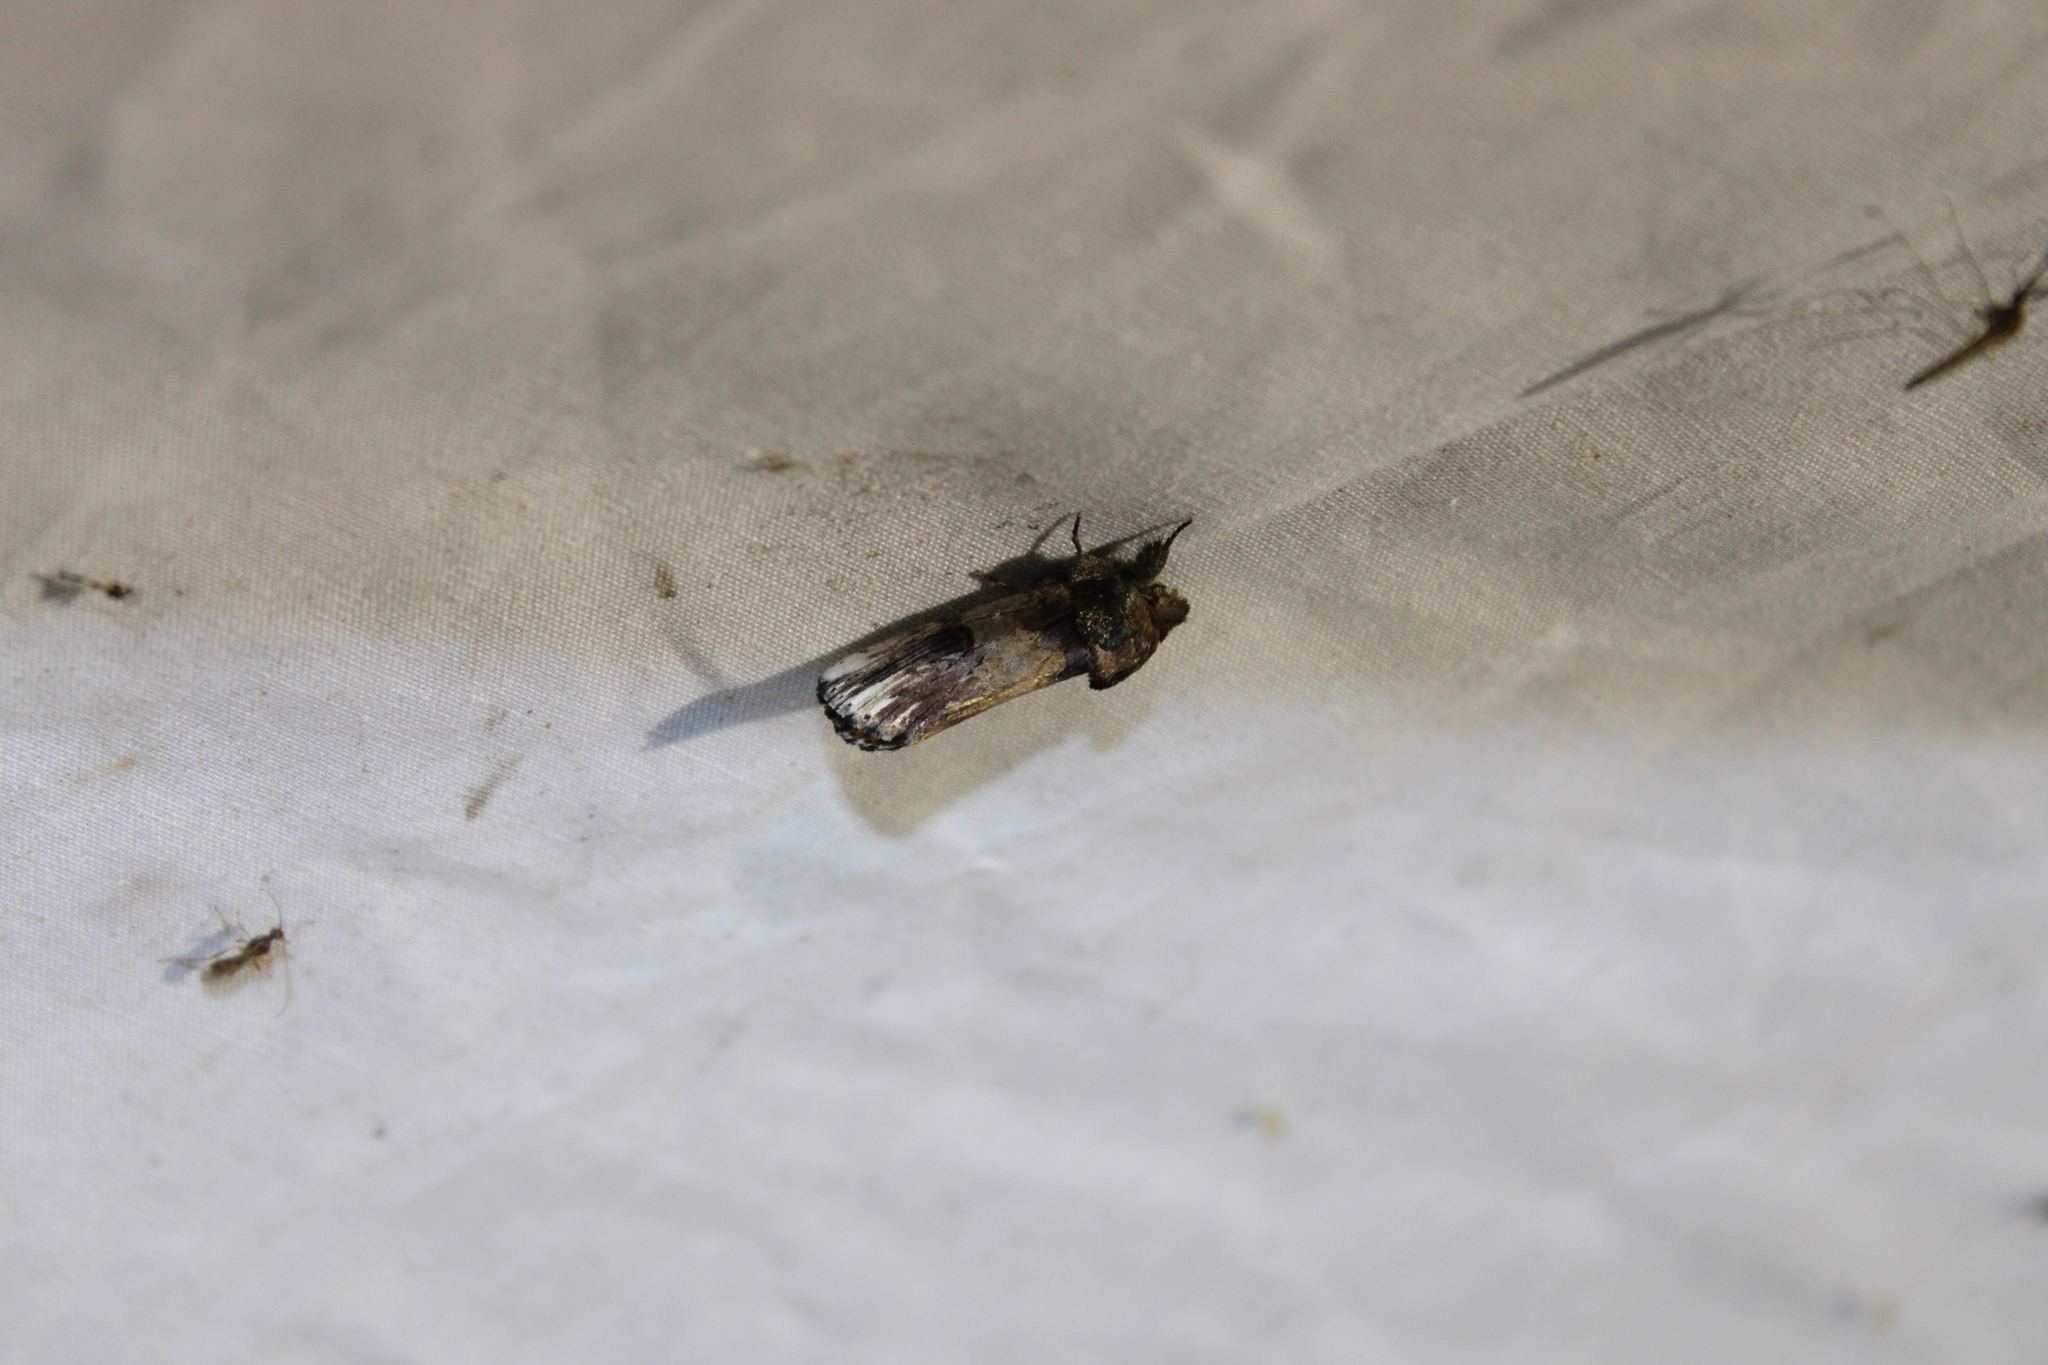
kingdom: Animalia
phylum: Arthropoda
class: Insecta
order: Lepidoptera
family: Notodontidae
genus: Schizura
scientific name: Schizura badia
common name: Chestnut schizura
